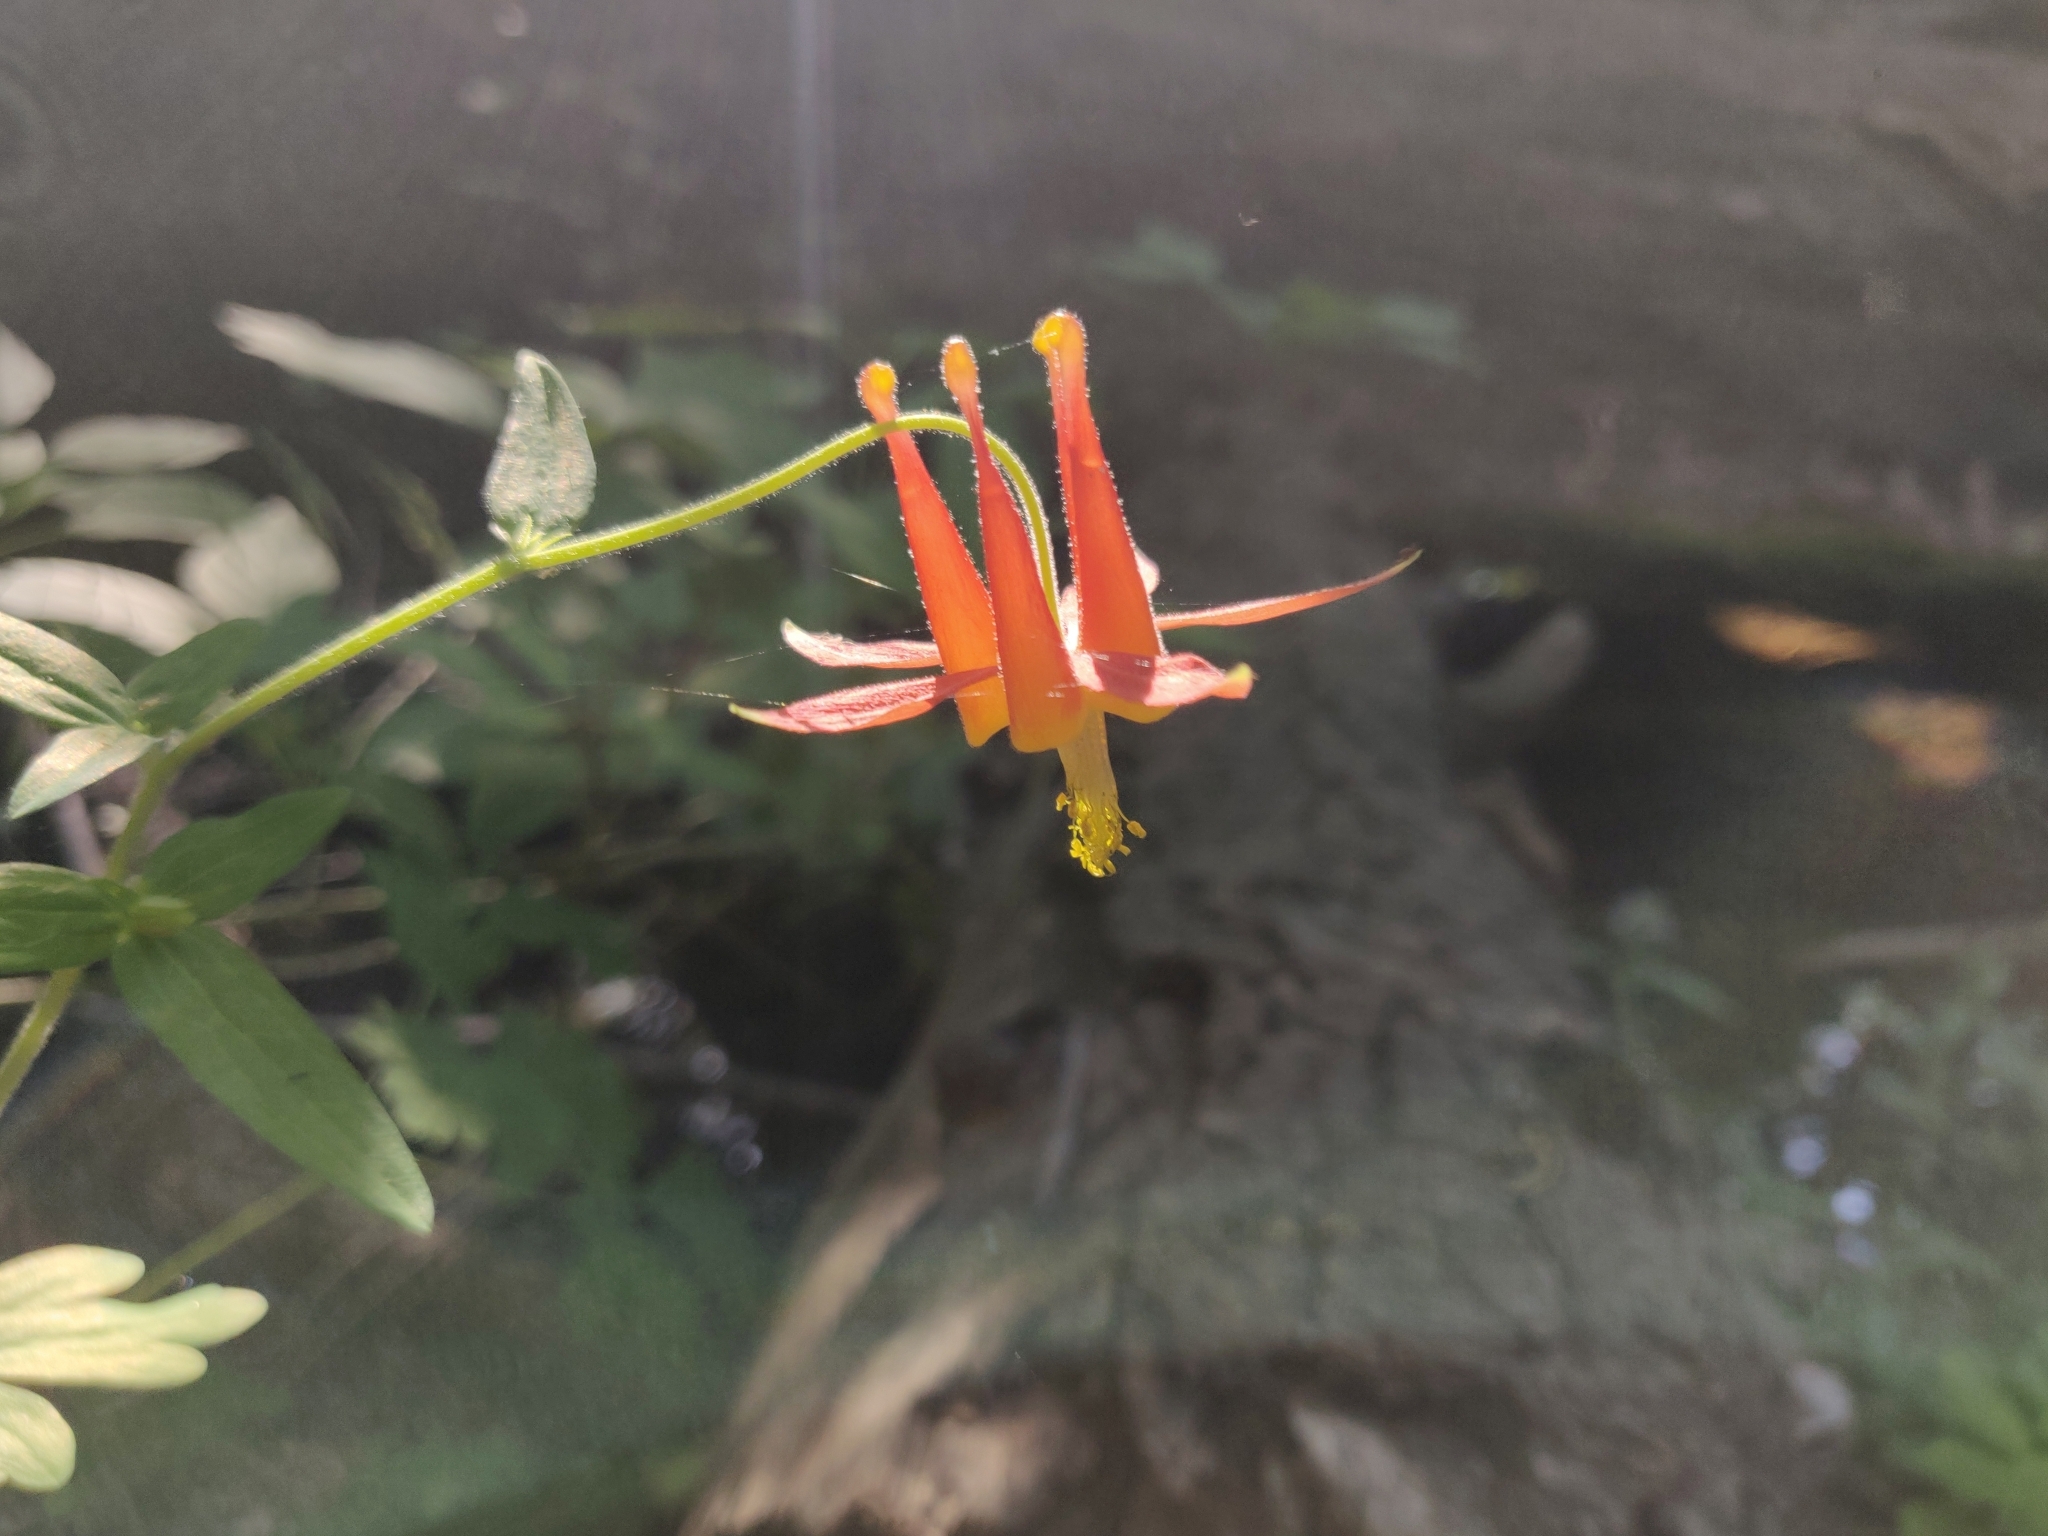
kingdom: Plantae
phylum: Tracheophyta
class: Magnoliopsida
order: Ranunculales
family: Ranunculaceae
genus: Aquilegia
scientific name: Aquilegia formosa
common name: Sitka columbine
